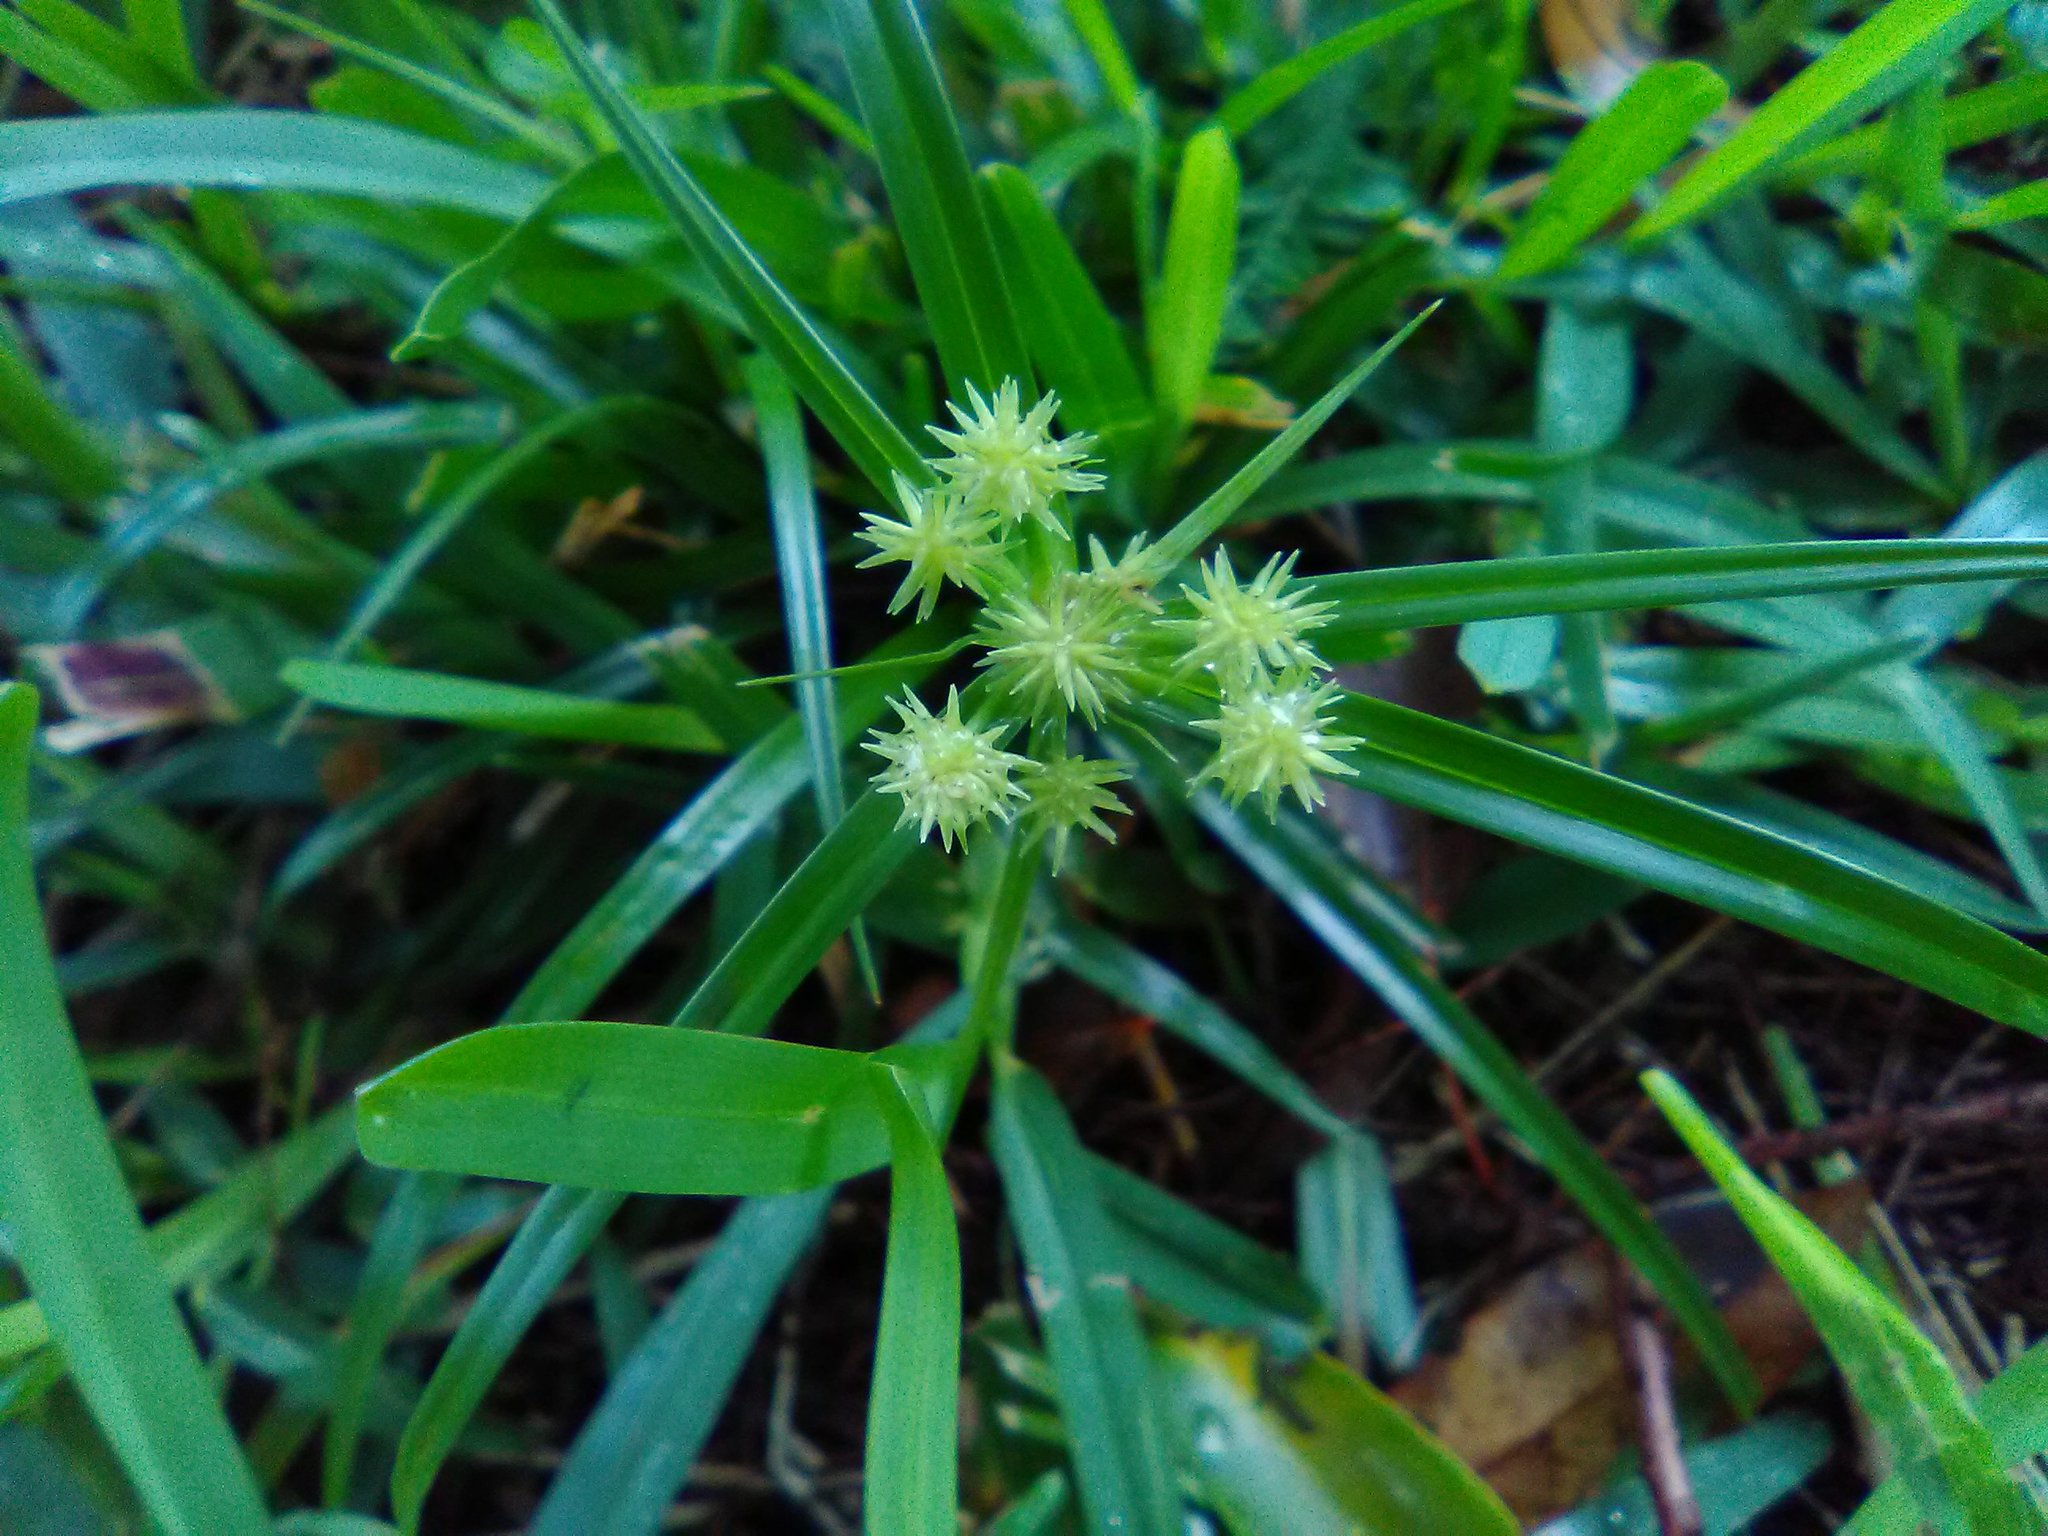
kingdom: Plantae
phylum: Tracheophyta
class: Liliopsida
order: Poales
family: Cyperaceae
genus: Cyperus
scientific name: Cyperus croceus
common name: Baldwin's flatsedge
